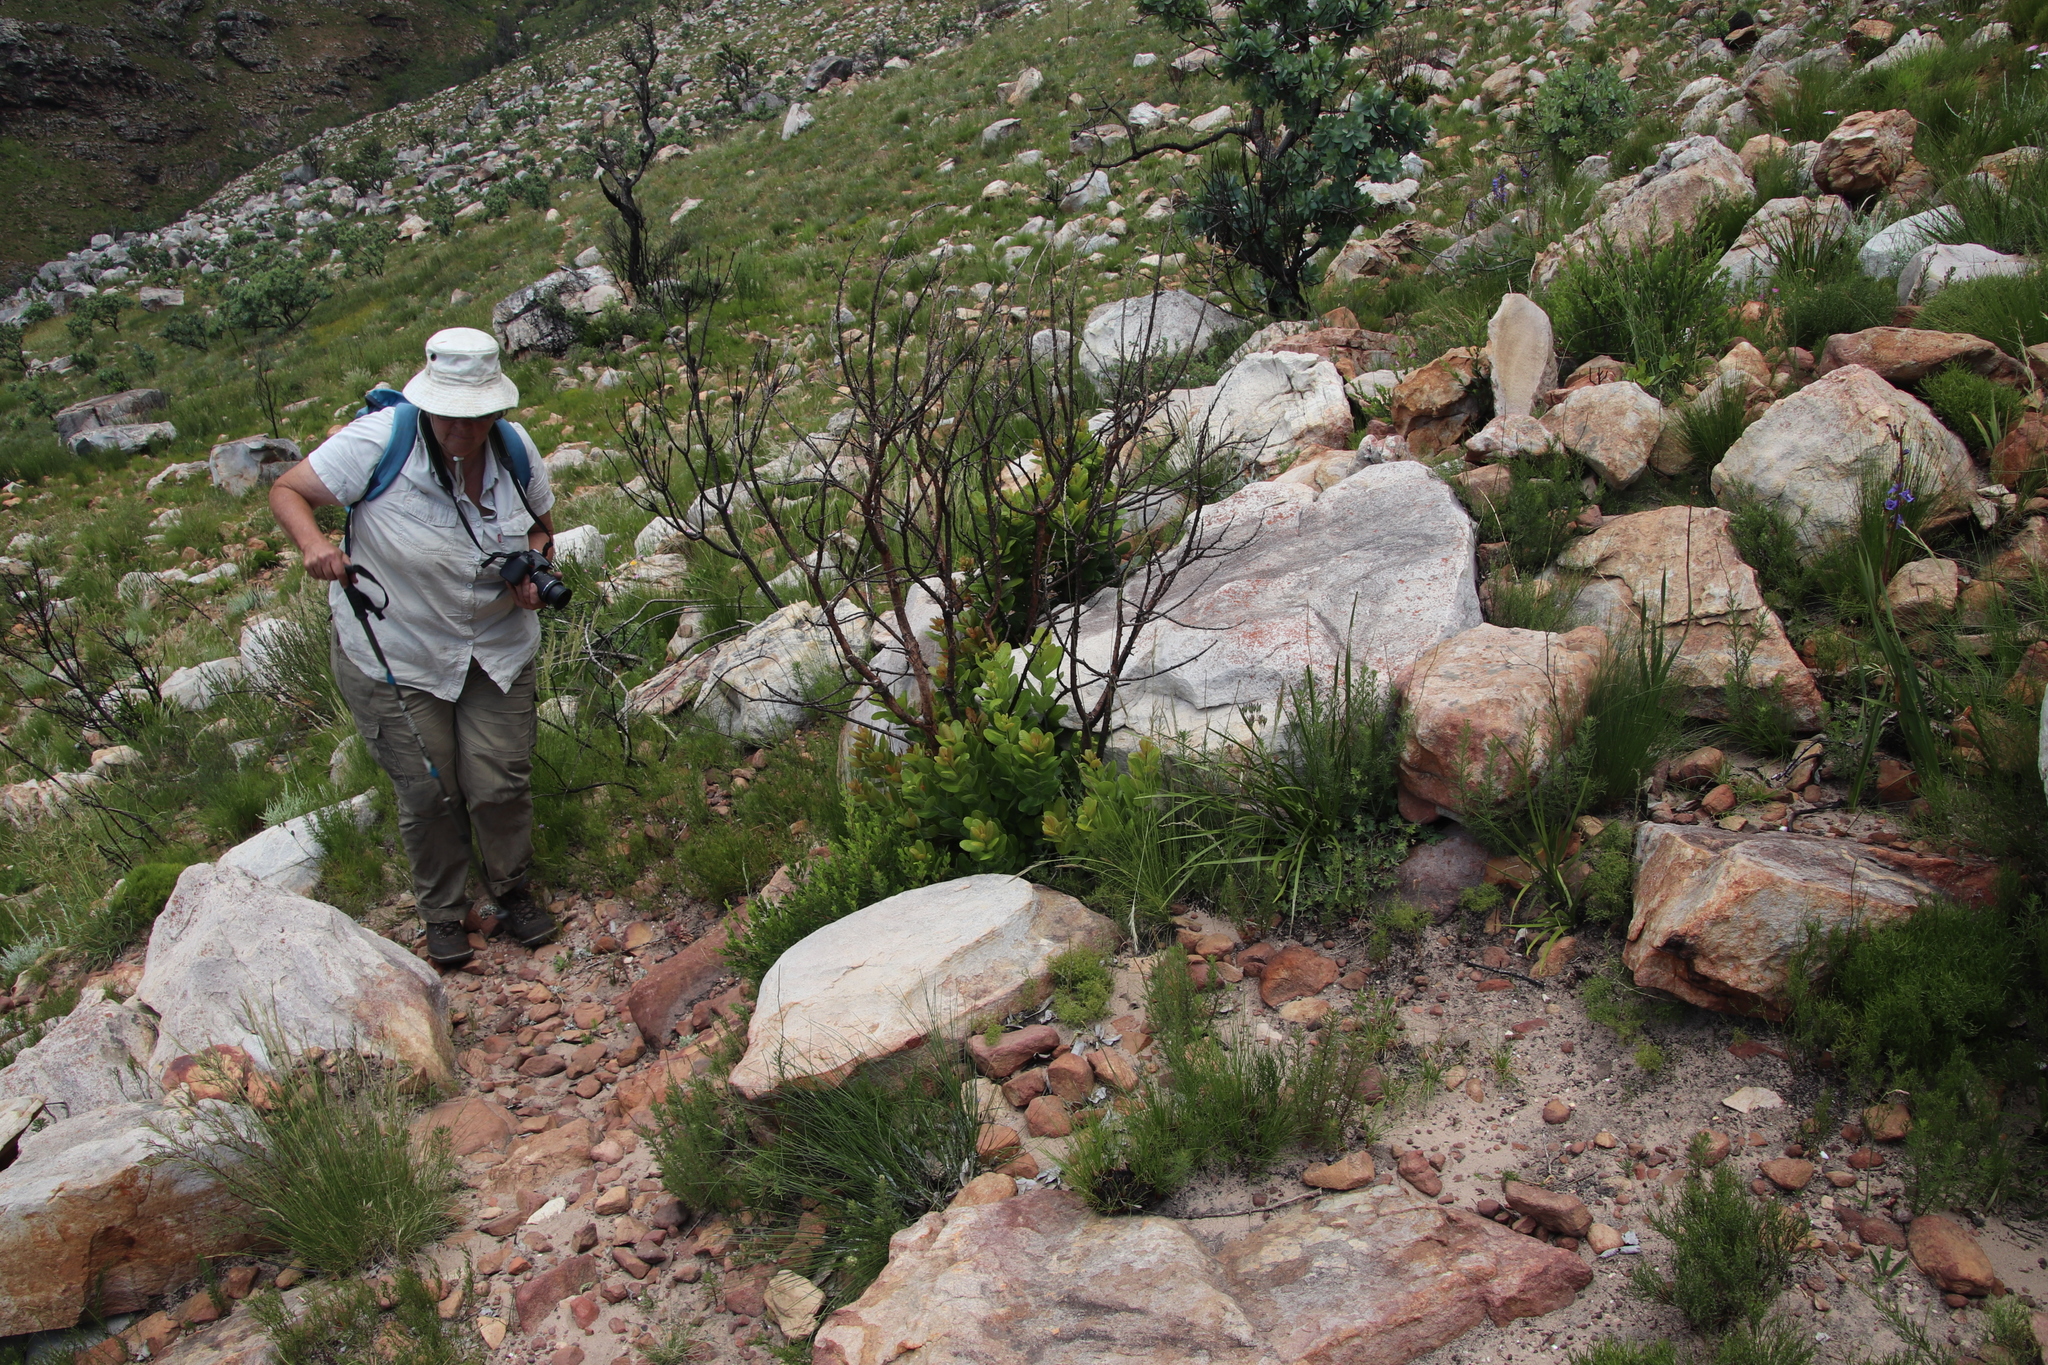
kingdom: Plantae
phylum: Tracheophyta
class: Magnoliopsida
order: Sapindales
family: Anacardiaceae
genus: Heeria
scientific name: Heeria argentea
